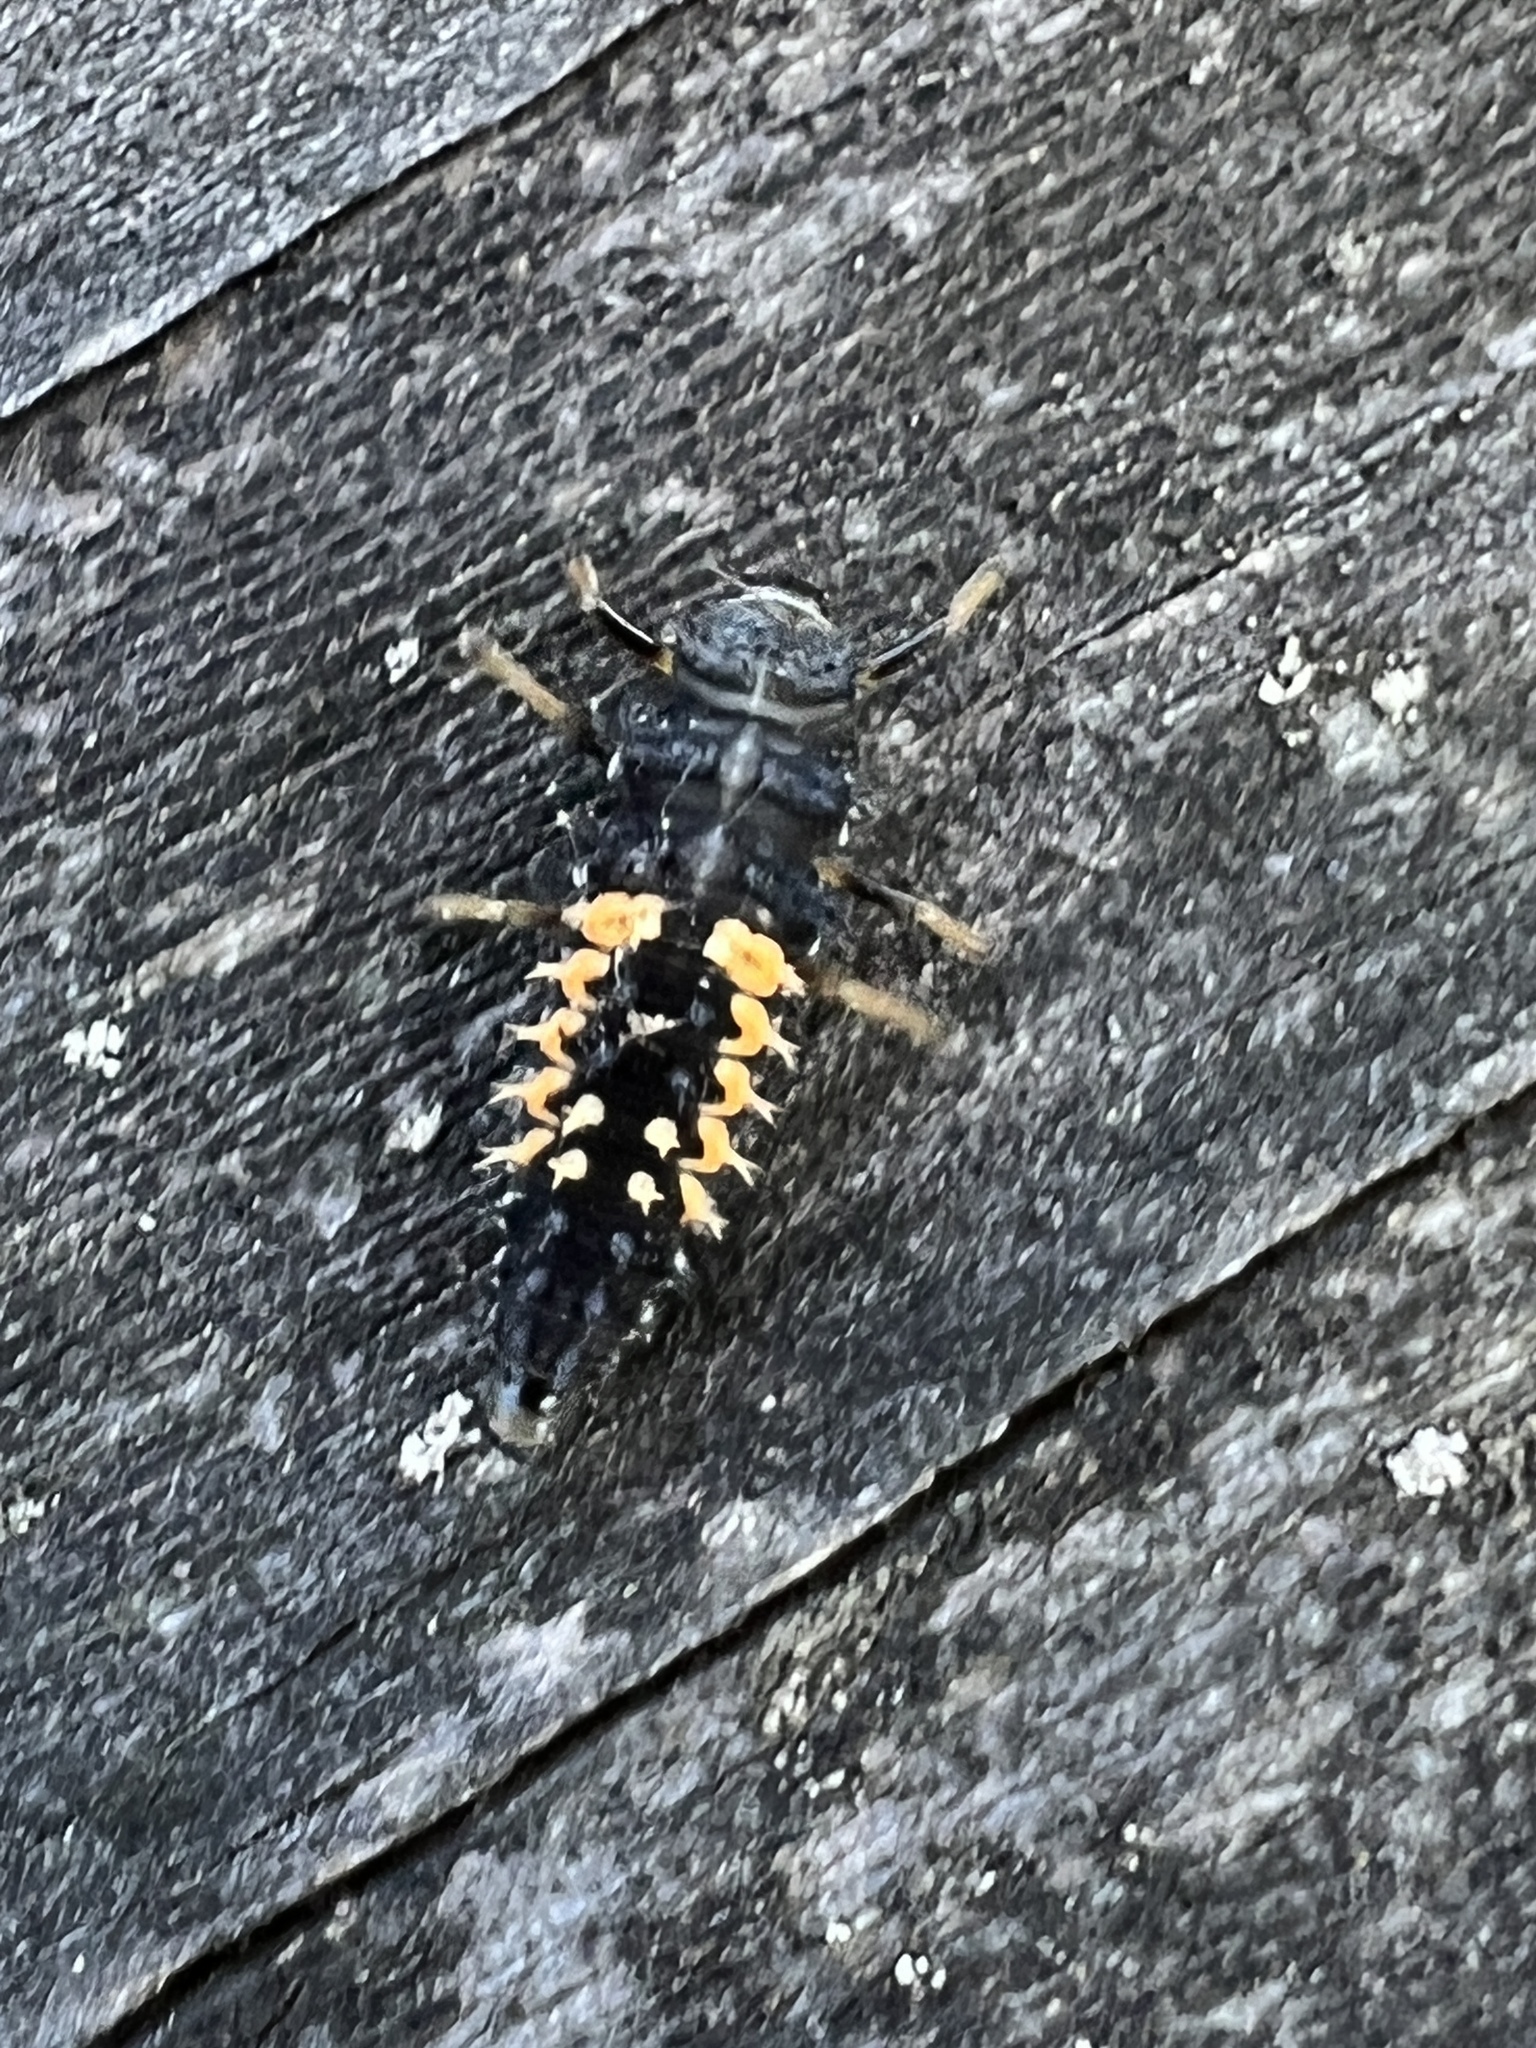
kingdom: Animalia
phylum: Arthropoda
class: Insecta
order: Coleoptera
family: Coccinellidae
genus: Harmonia
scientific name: Harmonia axyridis
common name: Harlequin ladybird
